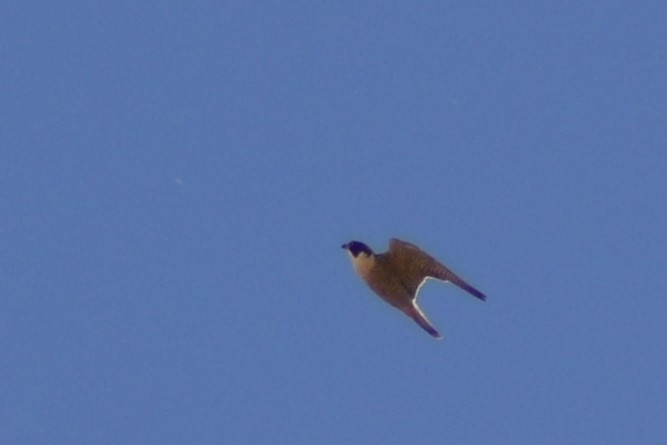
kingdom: Animalia
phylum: Chordata
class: Aves
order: Falconiformes
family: Falconidae
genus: Falco
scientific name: Falco peregrinus
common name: Peregrine falcon
